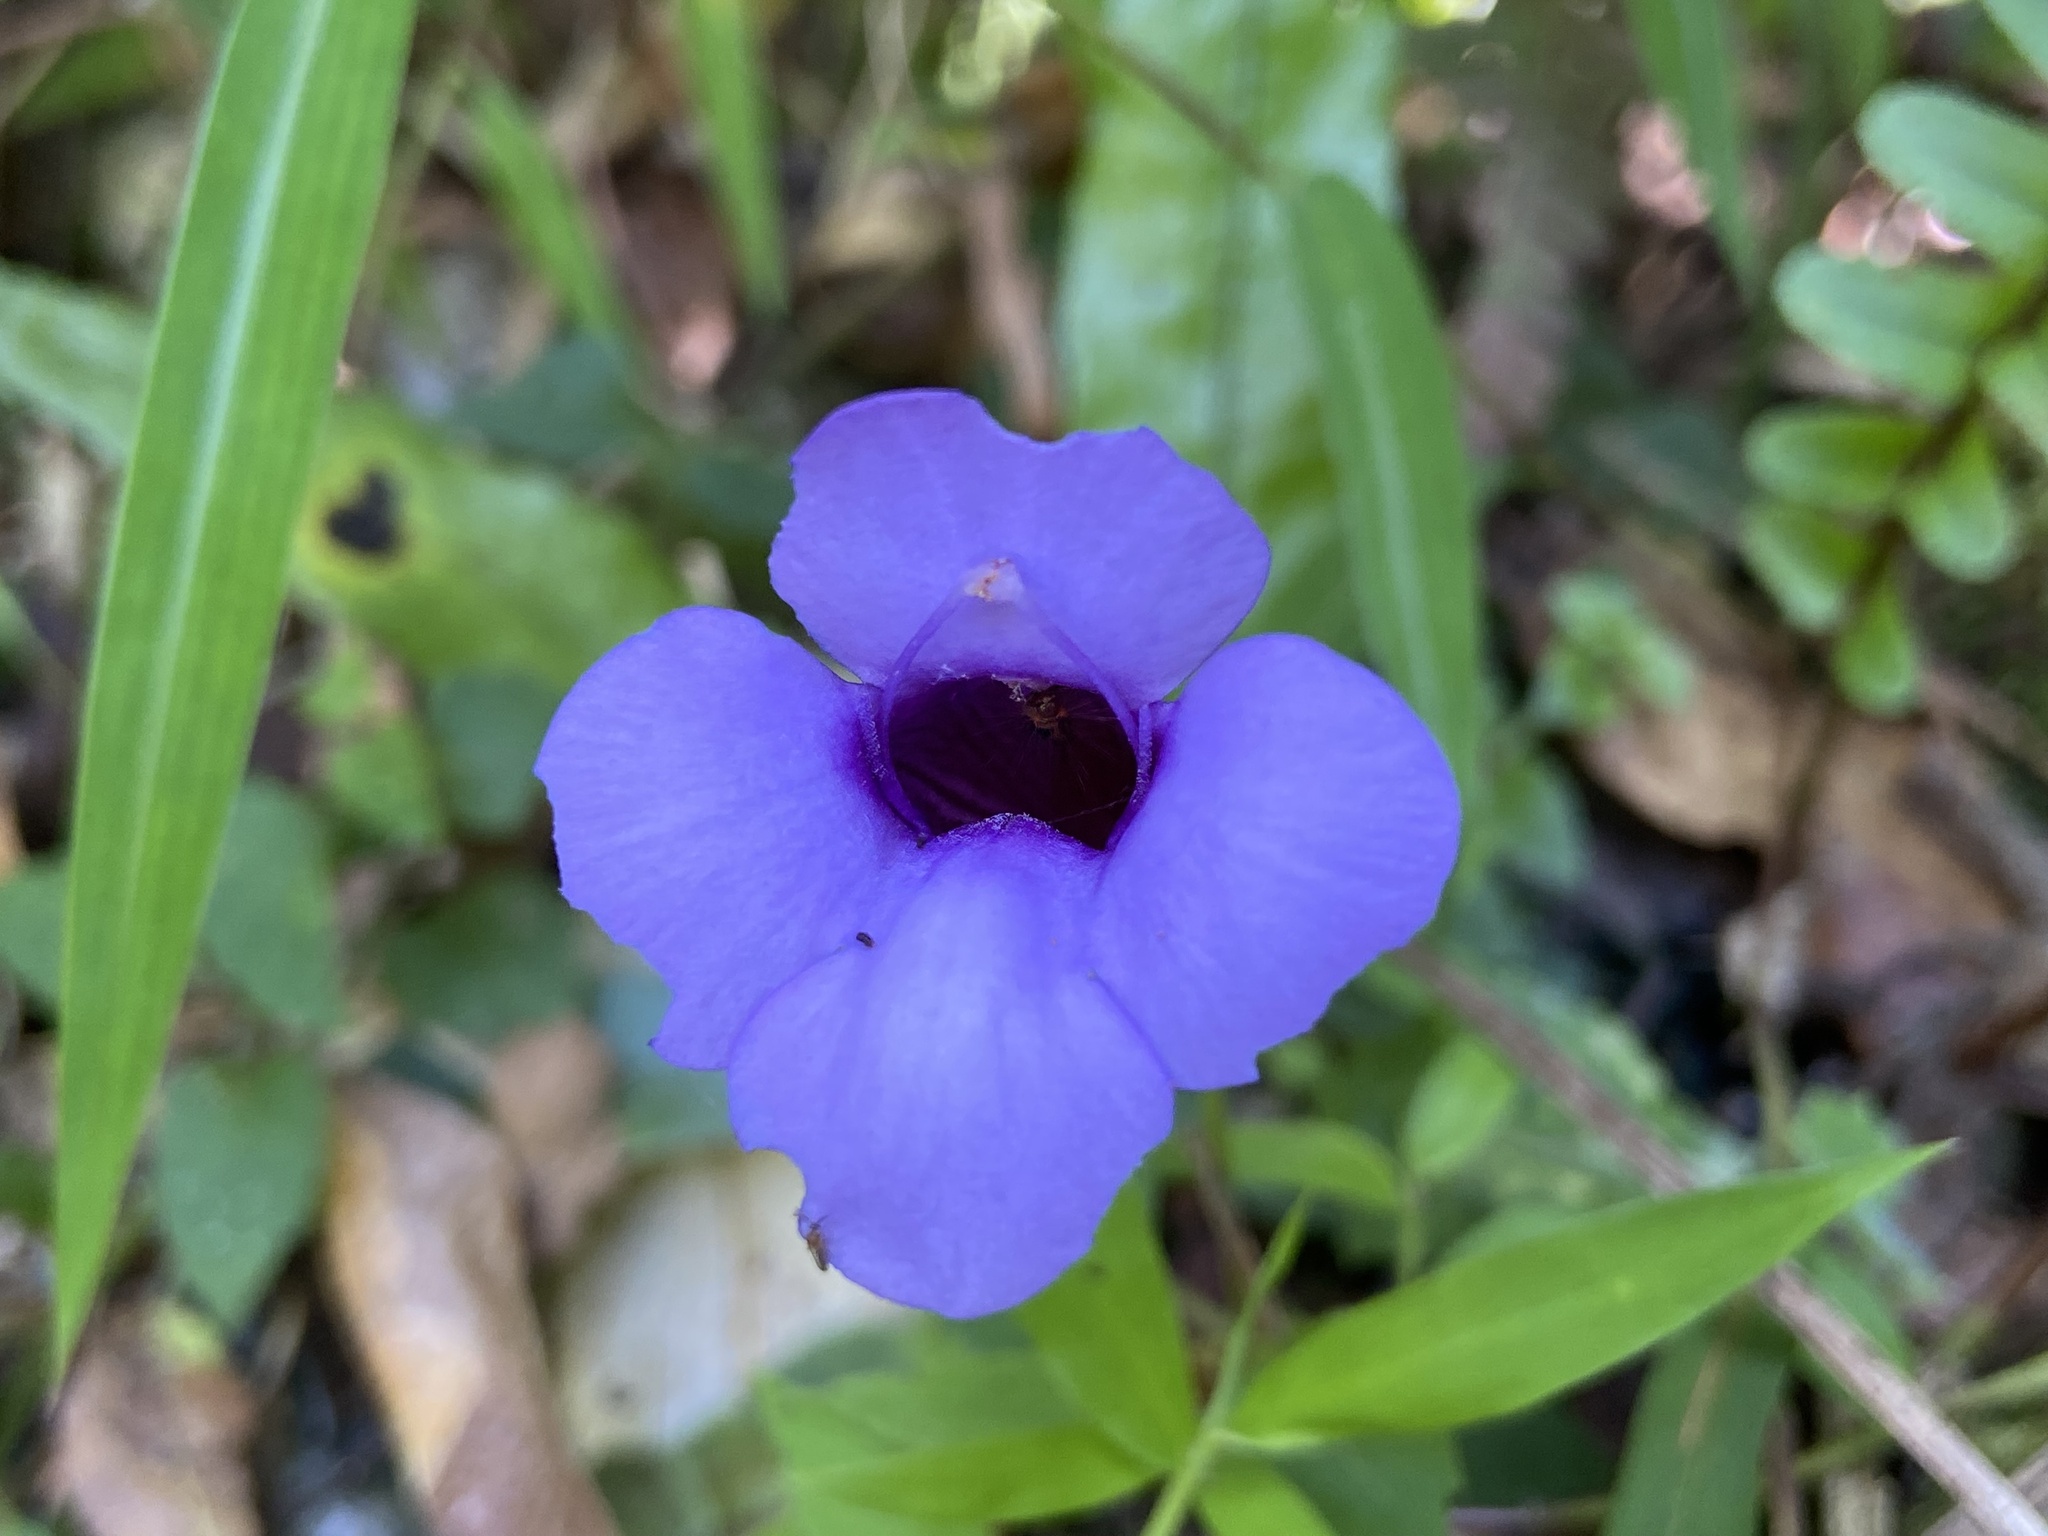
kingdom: Plantae
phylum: Tracheophyta
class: Magnoliopsida
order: Lamiales
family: Linderniaceae
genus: Torenia
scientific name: Torenia concolor
